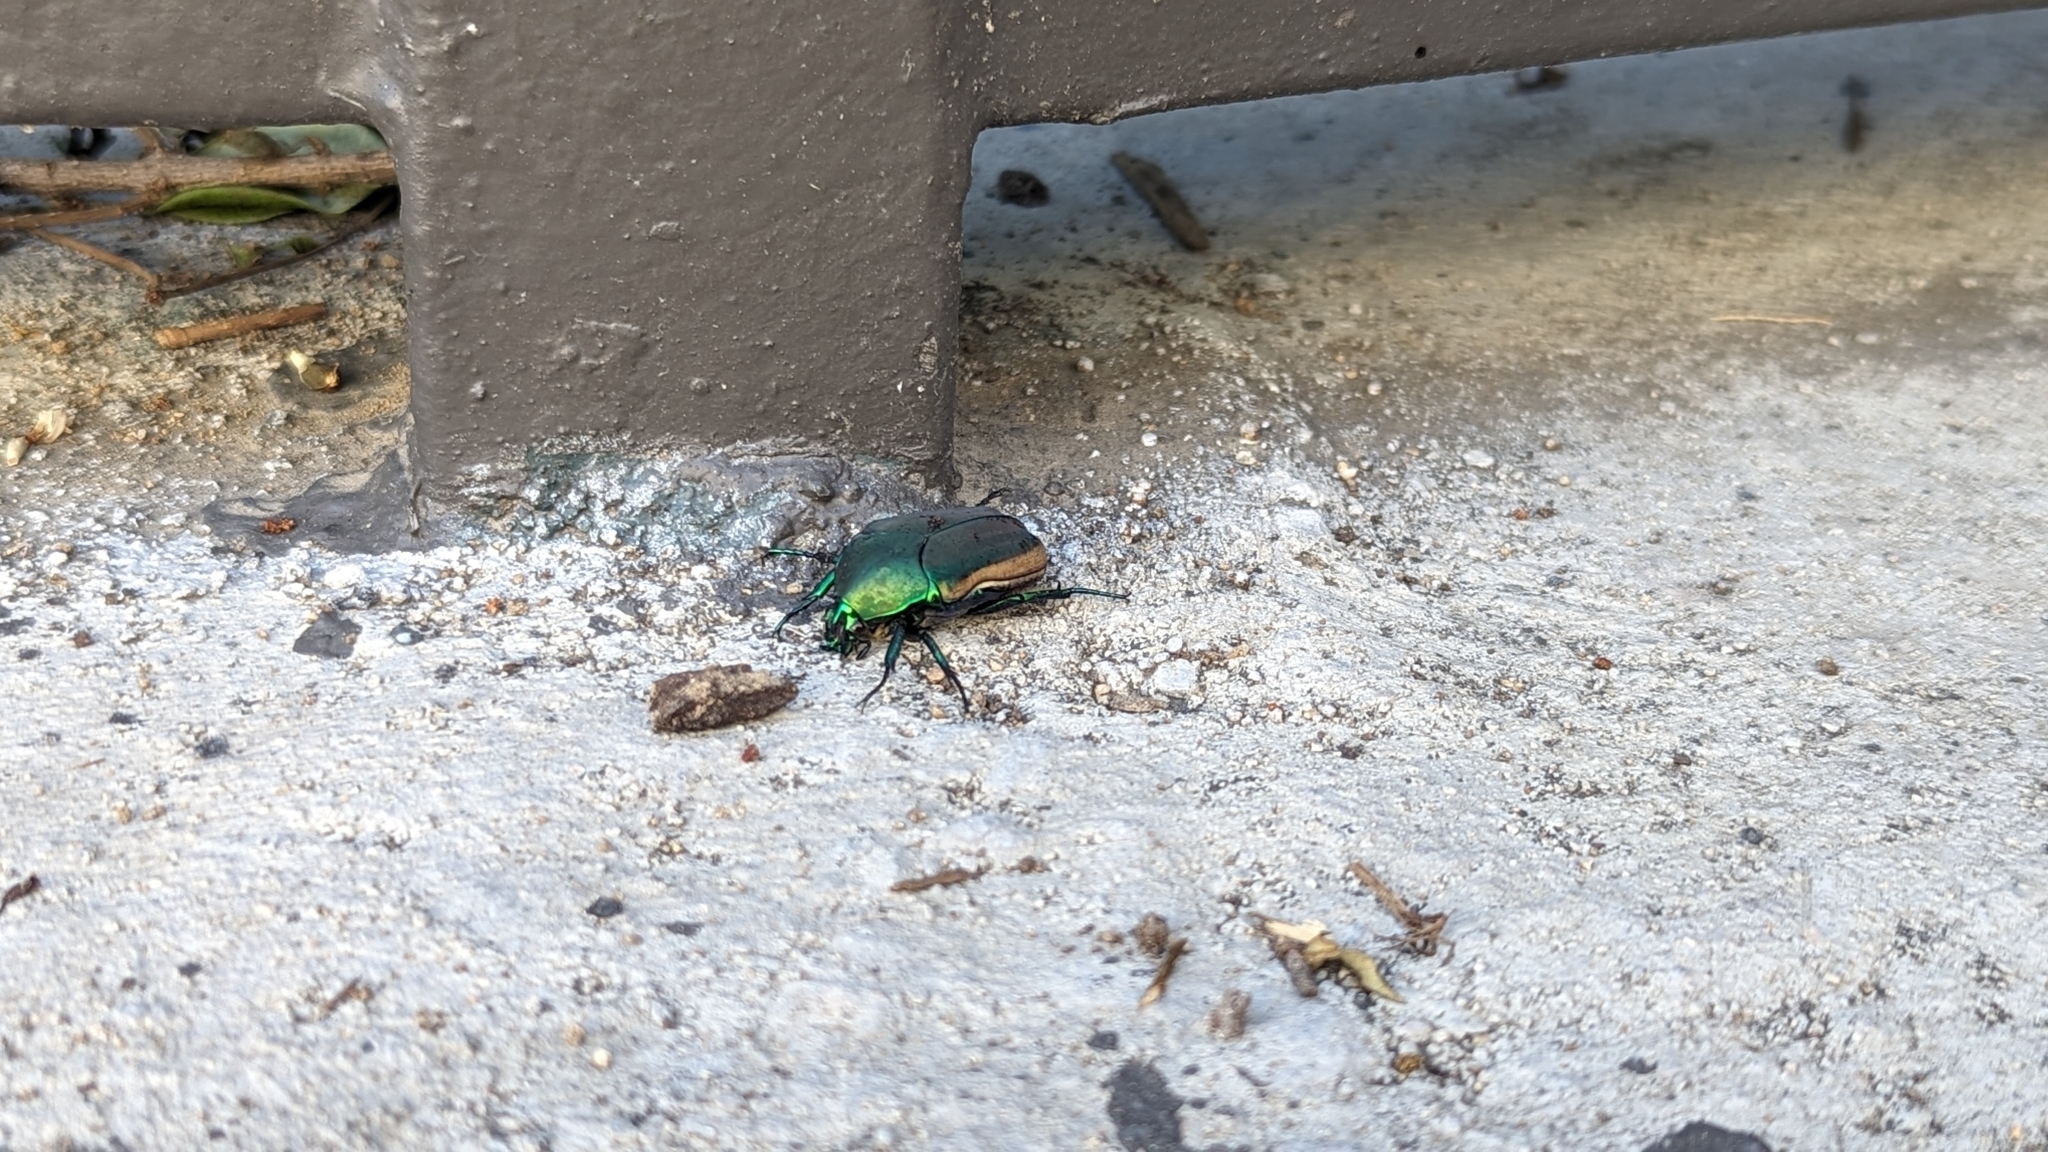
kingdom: Animalia
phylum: Arthropoda
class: Insecta
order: Coleoptera
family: Scarabaeidae
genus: Cotinis
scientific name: Cotinis mutabilis
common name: Figeater beetle
